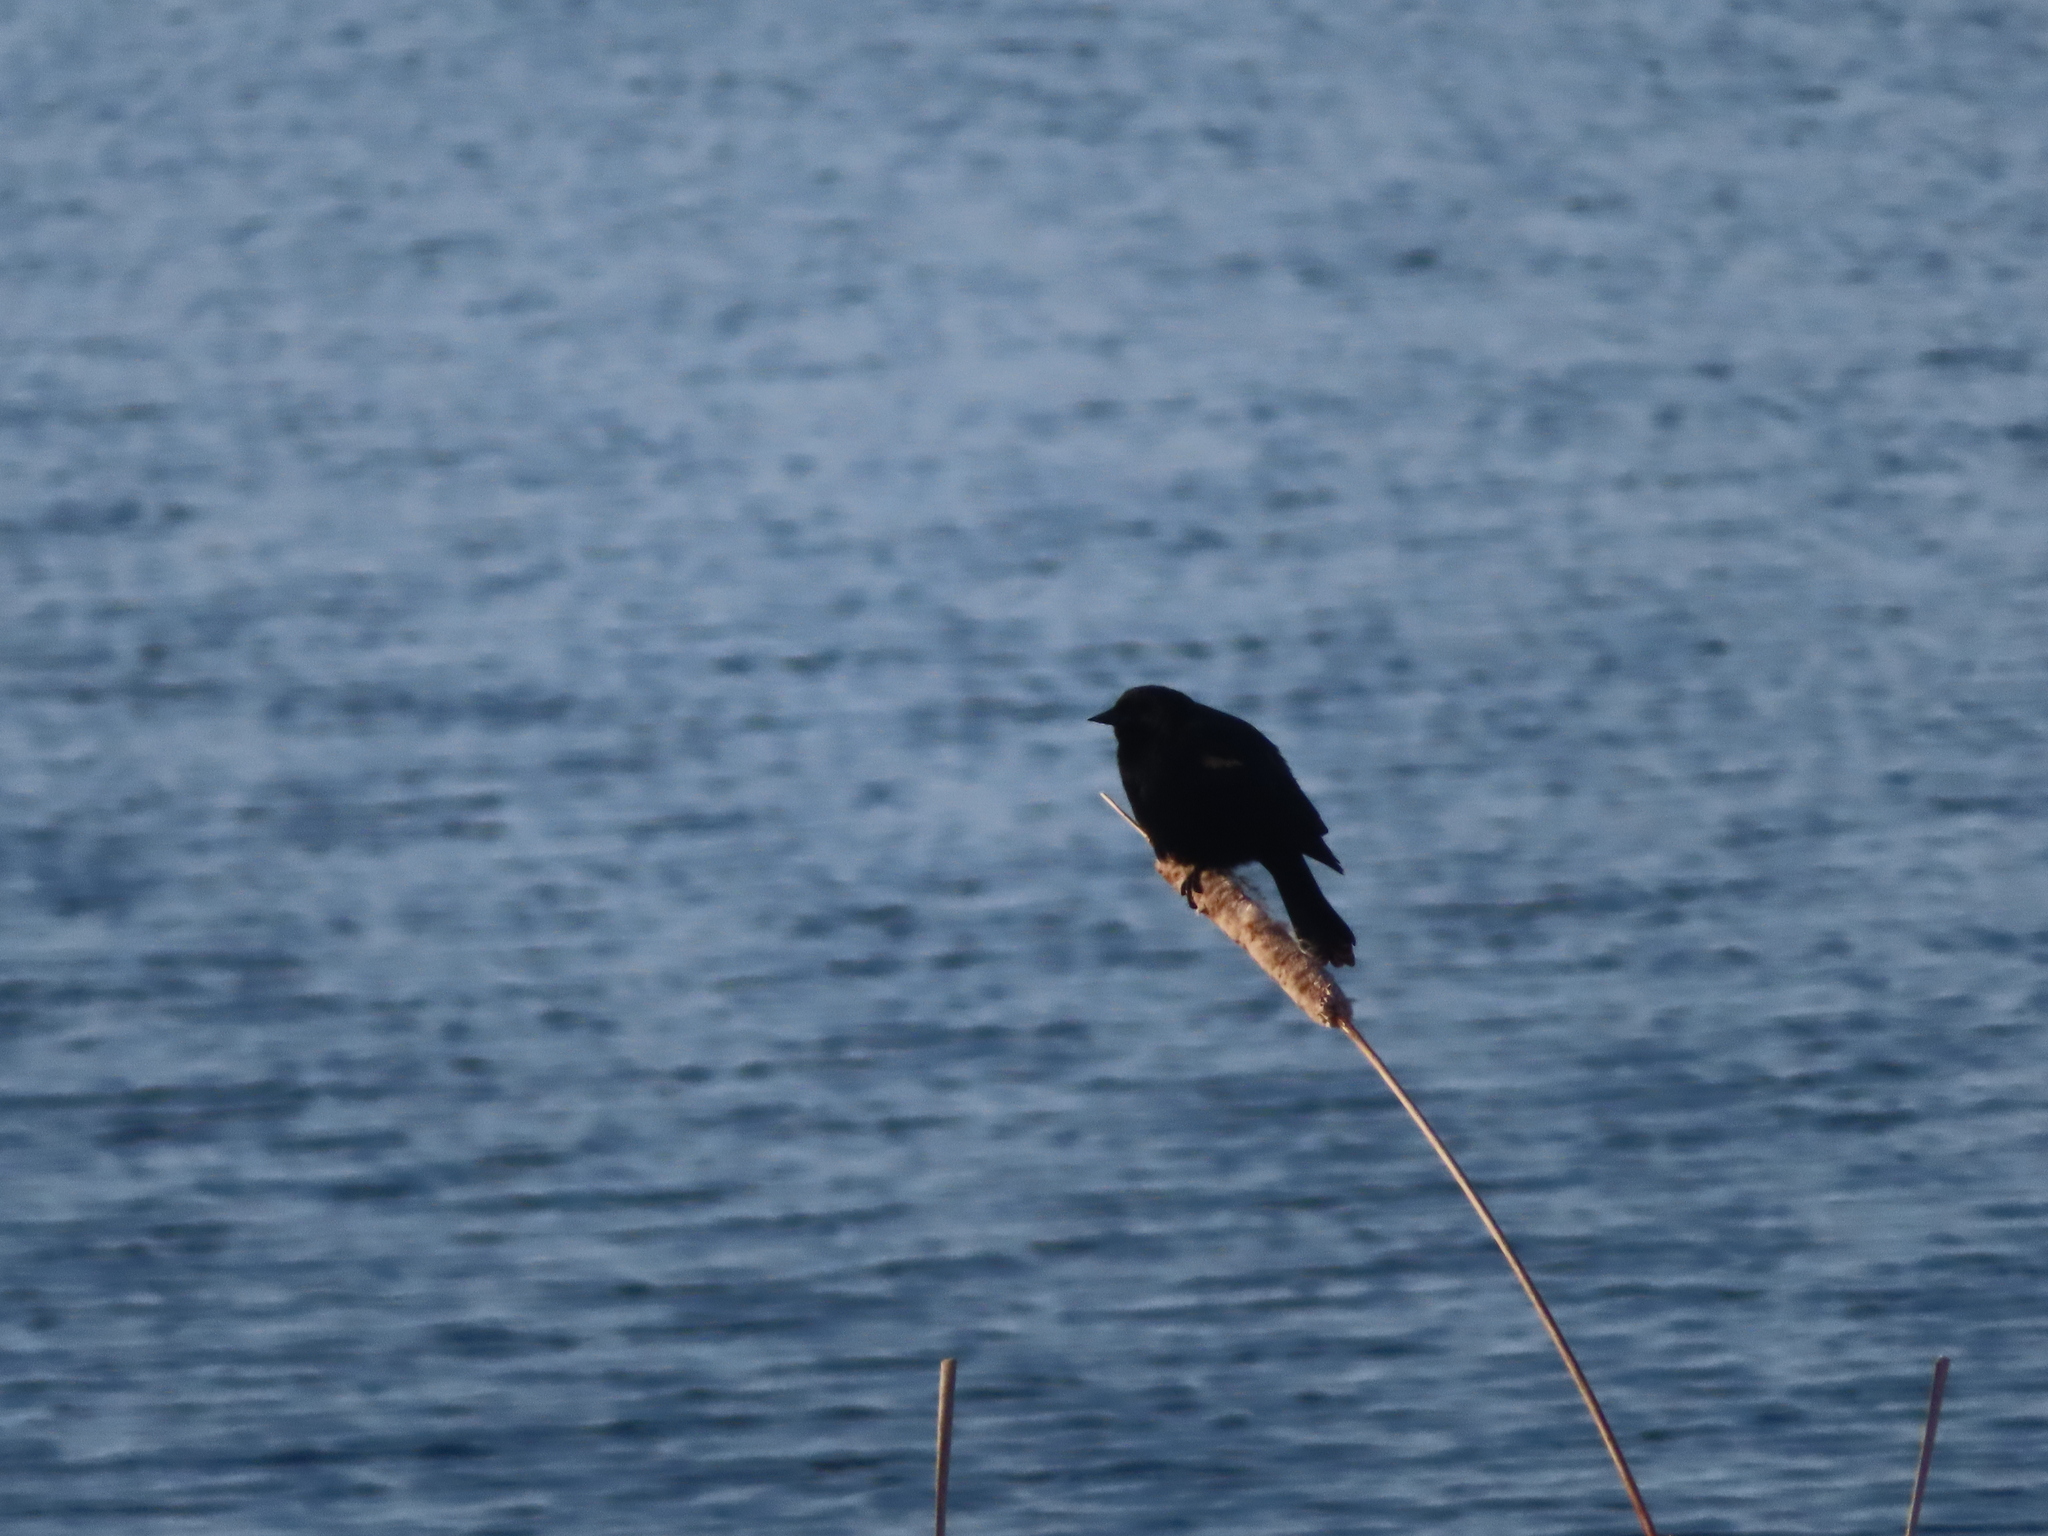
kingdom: Animalia
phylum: Chordata
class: Aves
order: Passeriformes
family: Icteridae
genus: Agelaius
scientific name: Agelaius phoeniceus
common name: Red-winged blackbird
